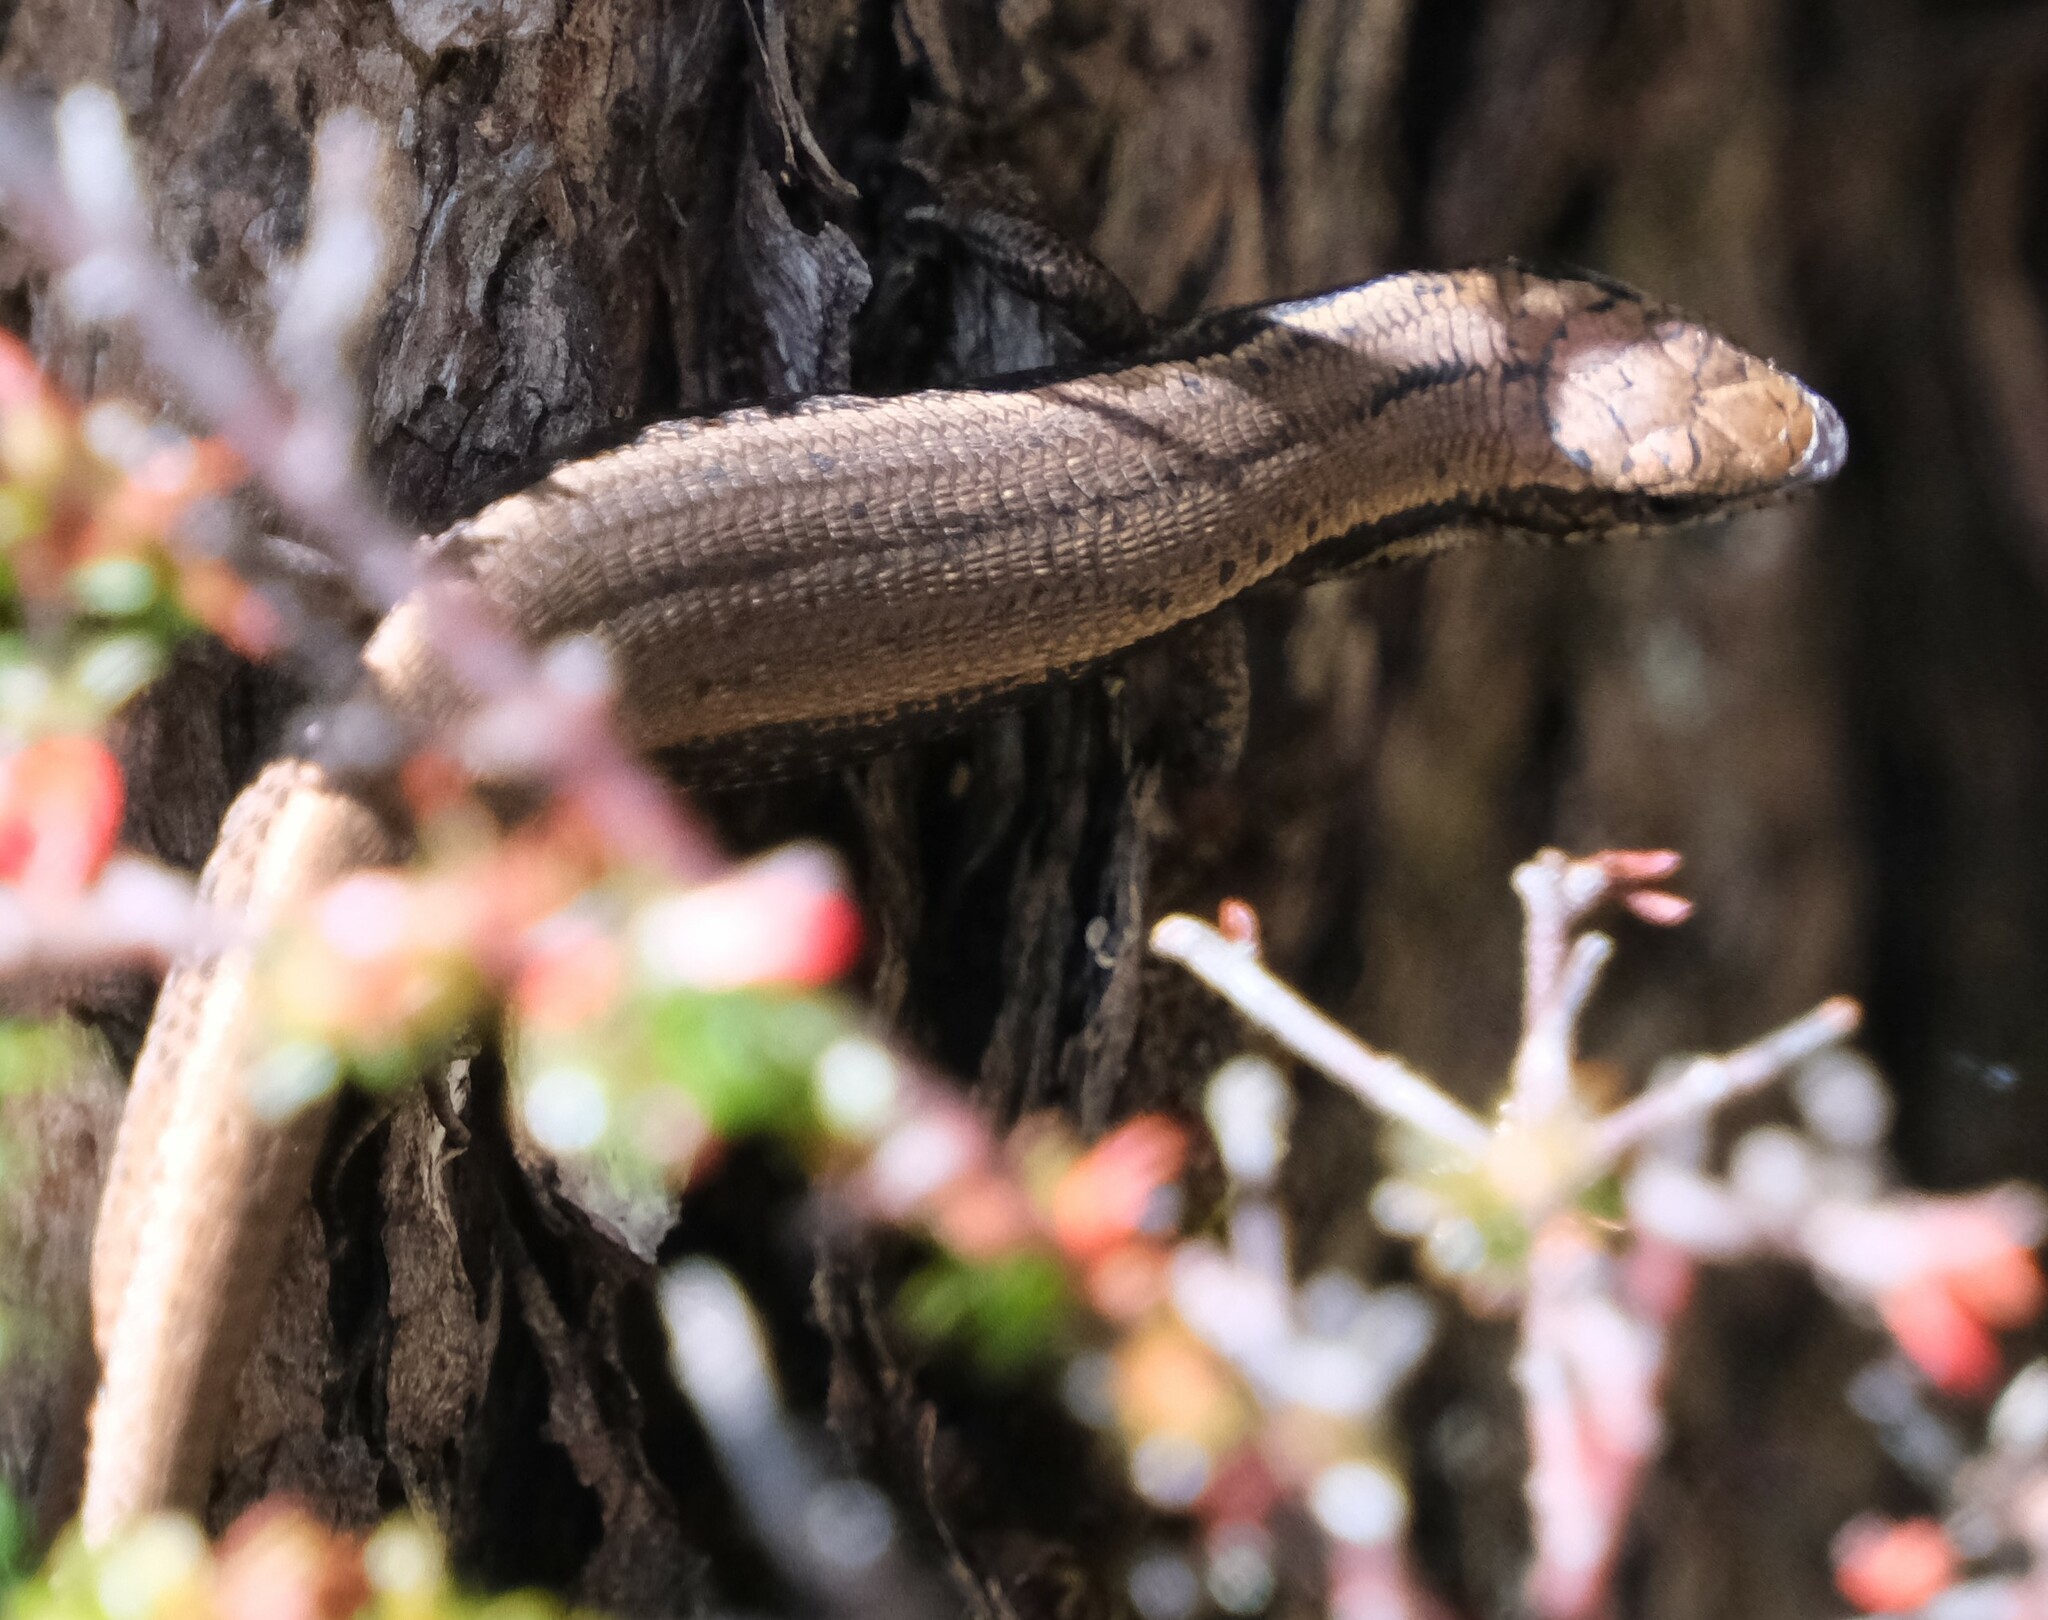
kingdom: Animalia
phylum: Chordata
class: Squamata
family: Scincidae
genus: Carinascincus
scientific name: Carinascincus metallicus
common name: Metallic cool-skink
